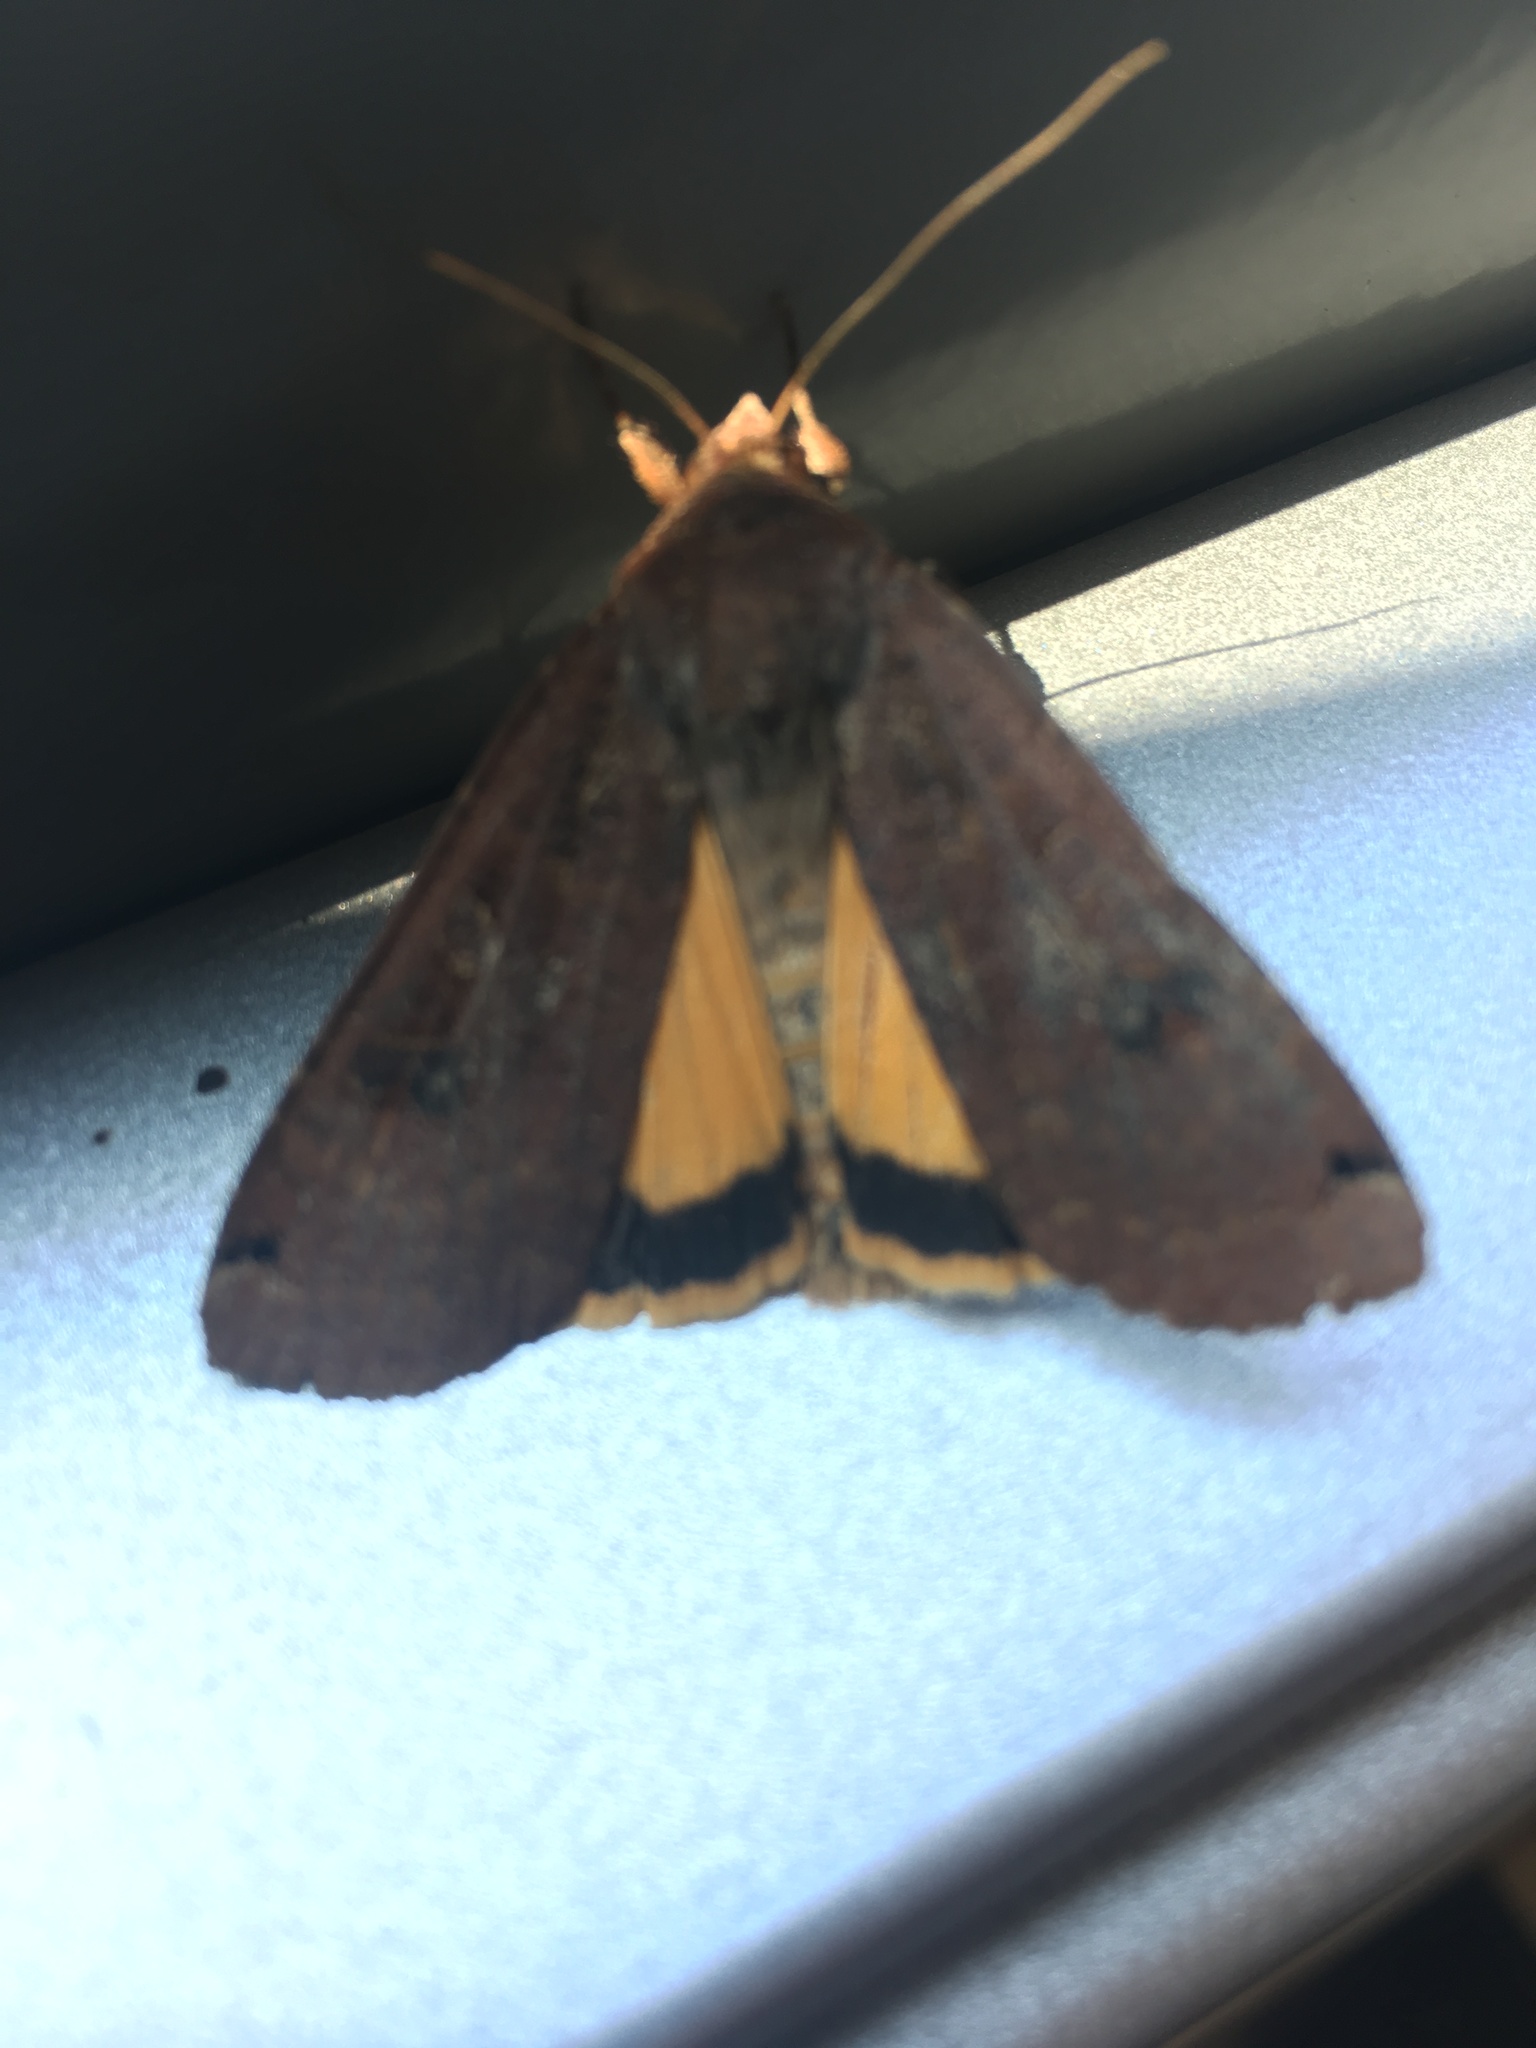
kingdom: Animalia
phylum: Arthropoda
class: Insecta
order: Lepidoptera
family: Noctuidae
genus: Noctua
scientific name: Noctua pronuba
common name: Large yellow underwing
